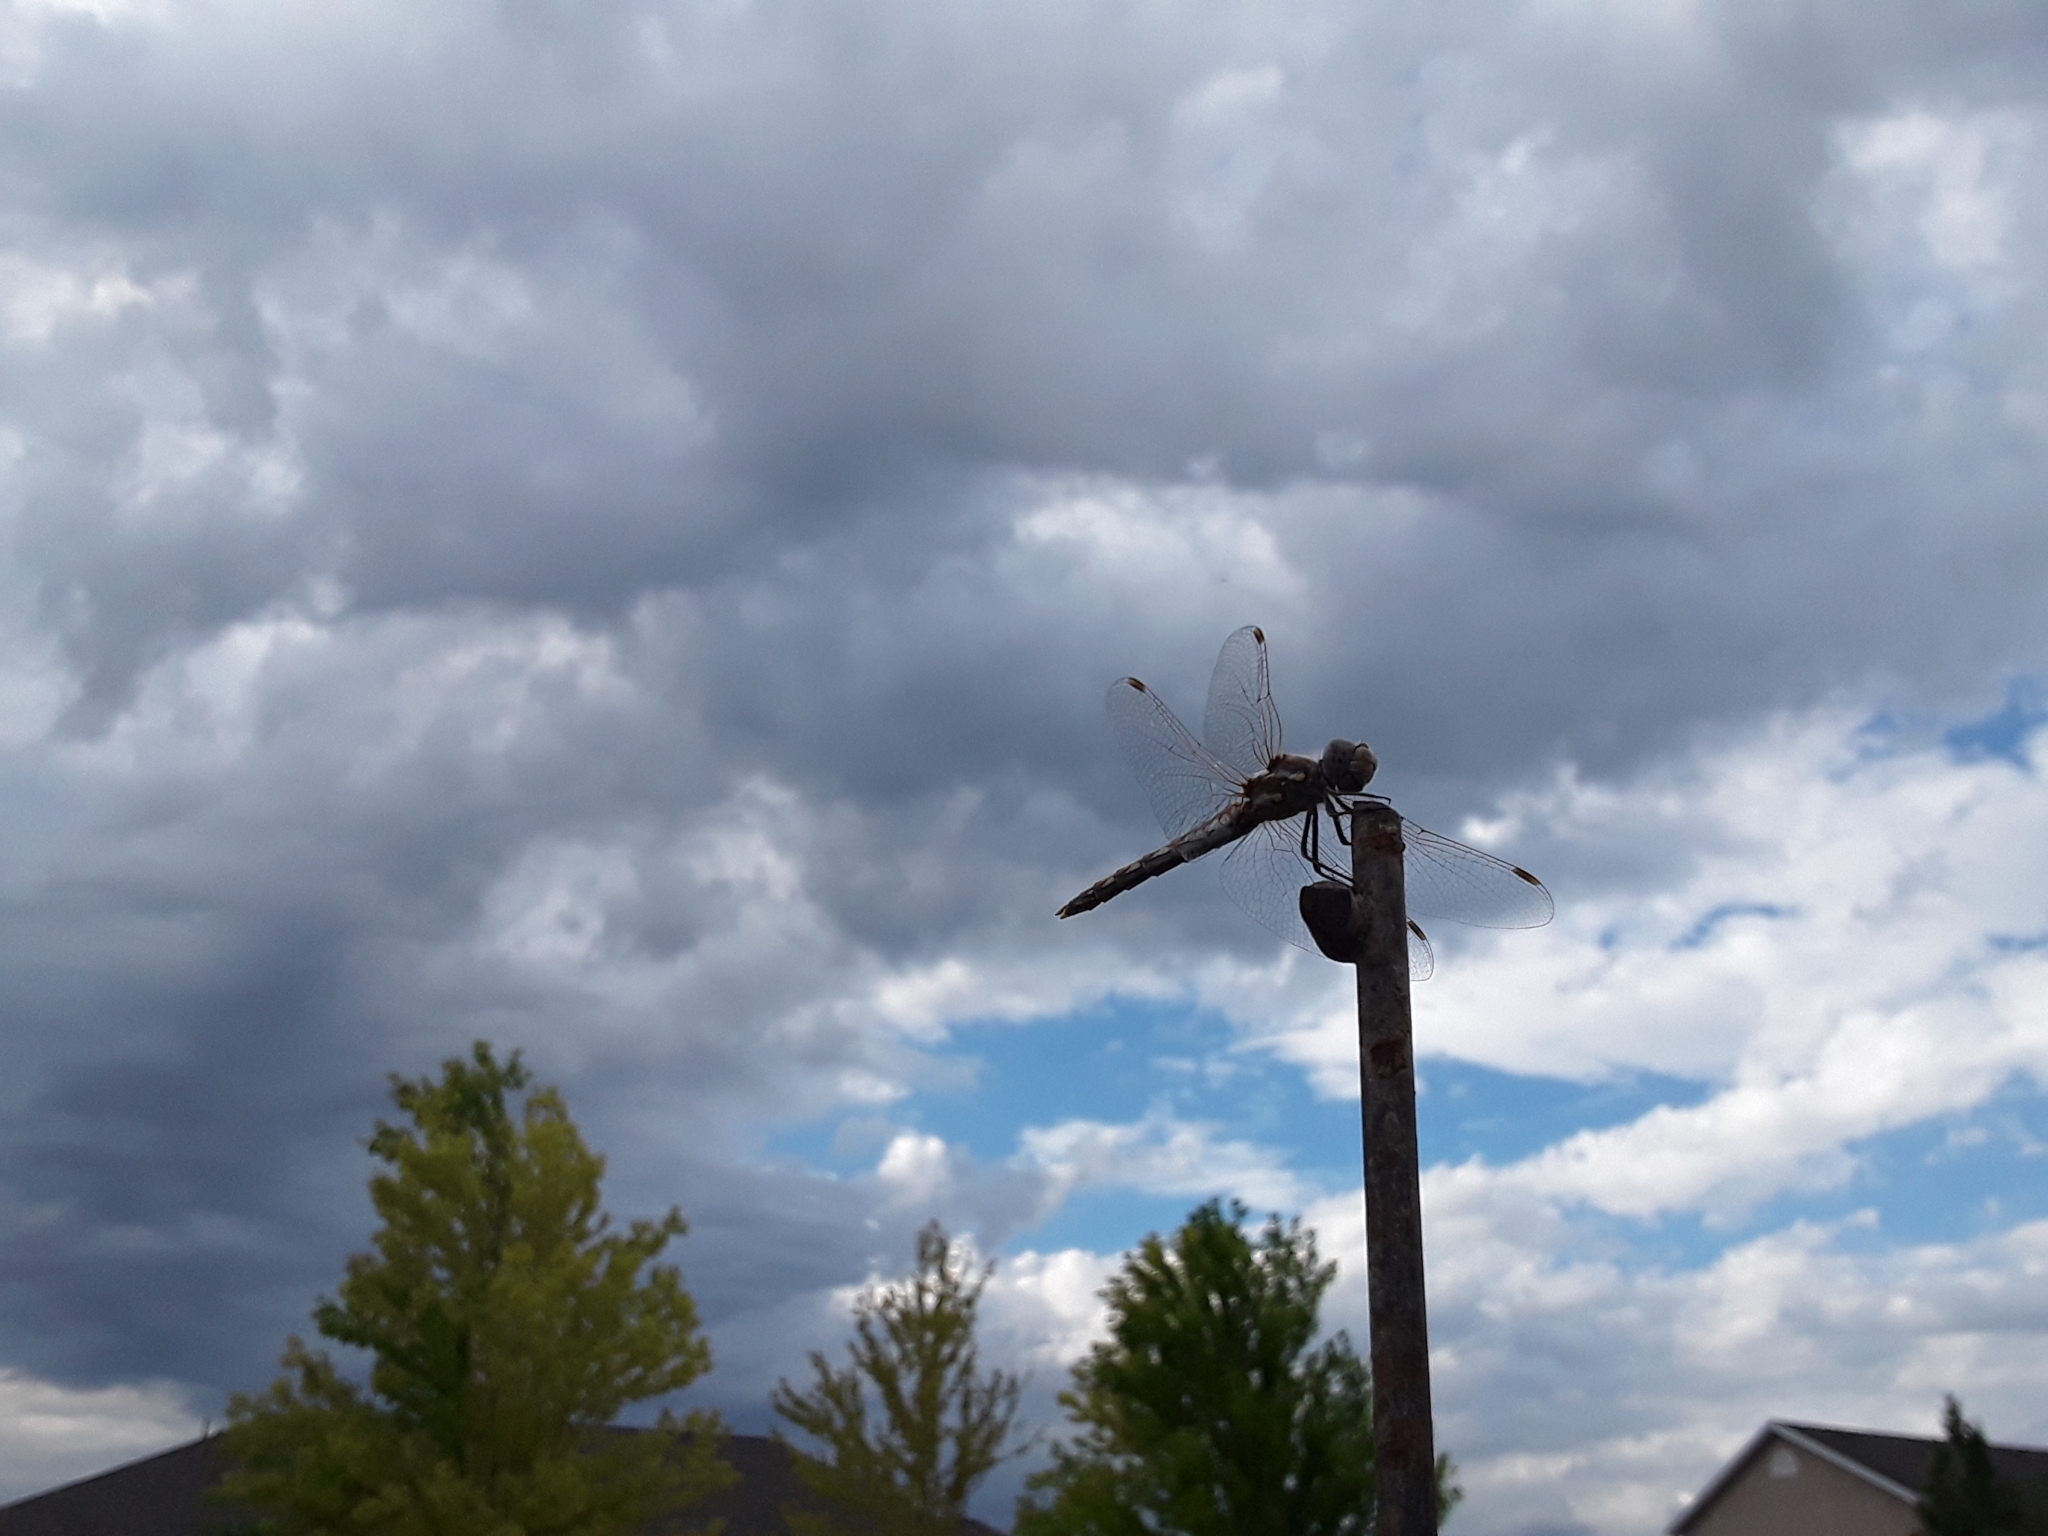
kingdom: Animalia
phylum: Arthropoda
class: Insecta
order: Odonata
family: Libellulidae
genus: Sympetrum
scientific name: Sympetrum corruptum
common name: Variegated meadowhawk
